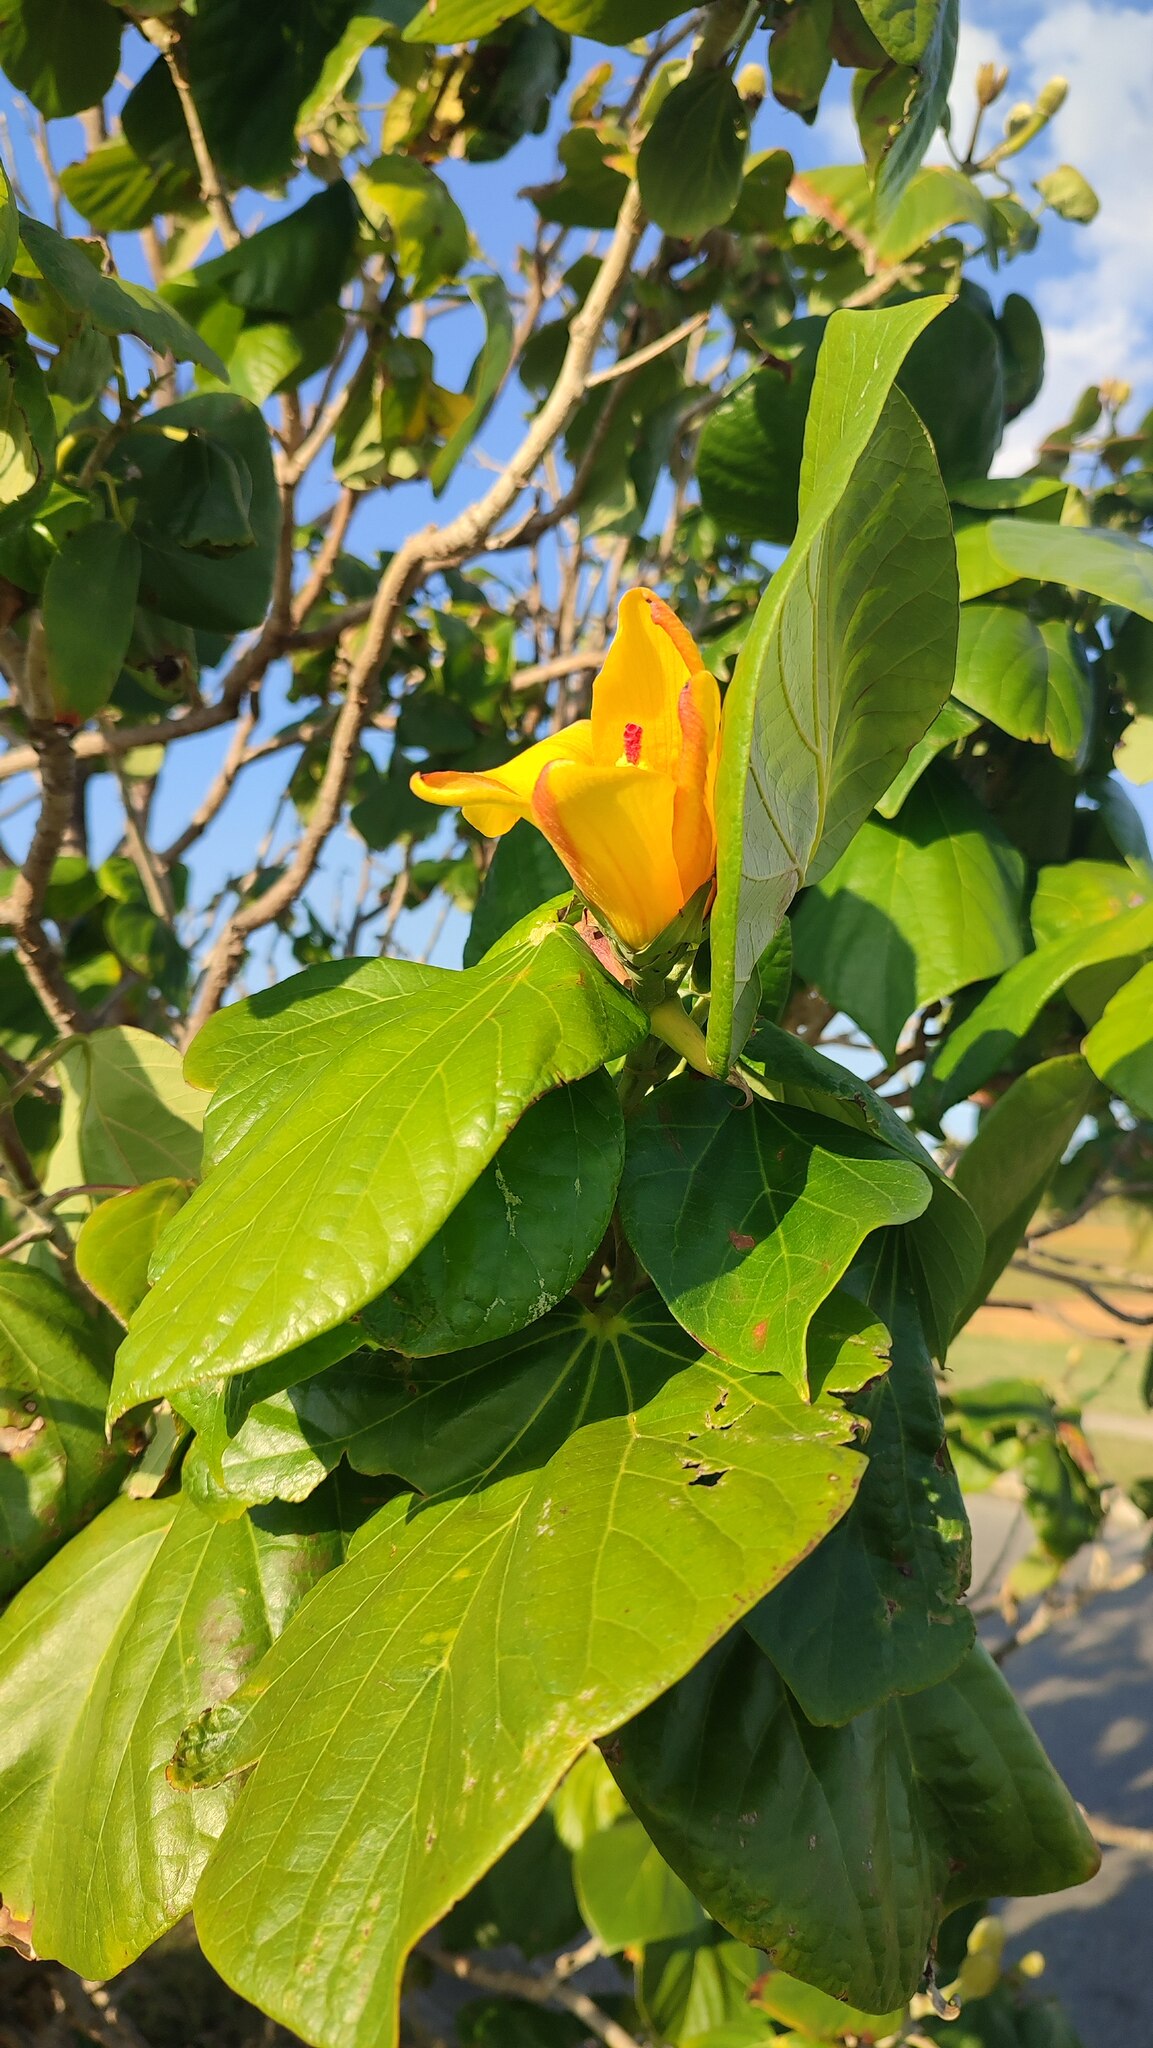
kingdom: Plantae
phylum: Tracheophyta
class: Magnoliopsida
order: Malvales
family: Malvaceae
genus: Talipariti
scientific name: Talipariti
